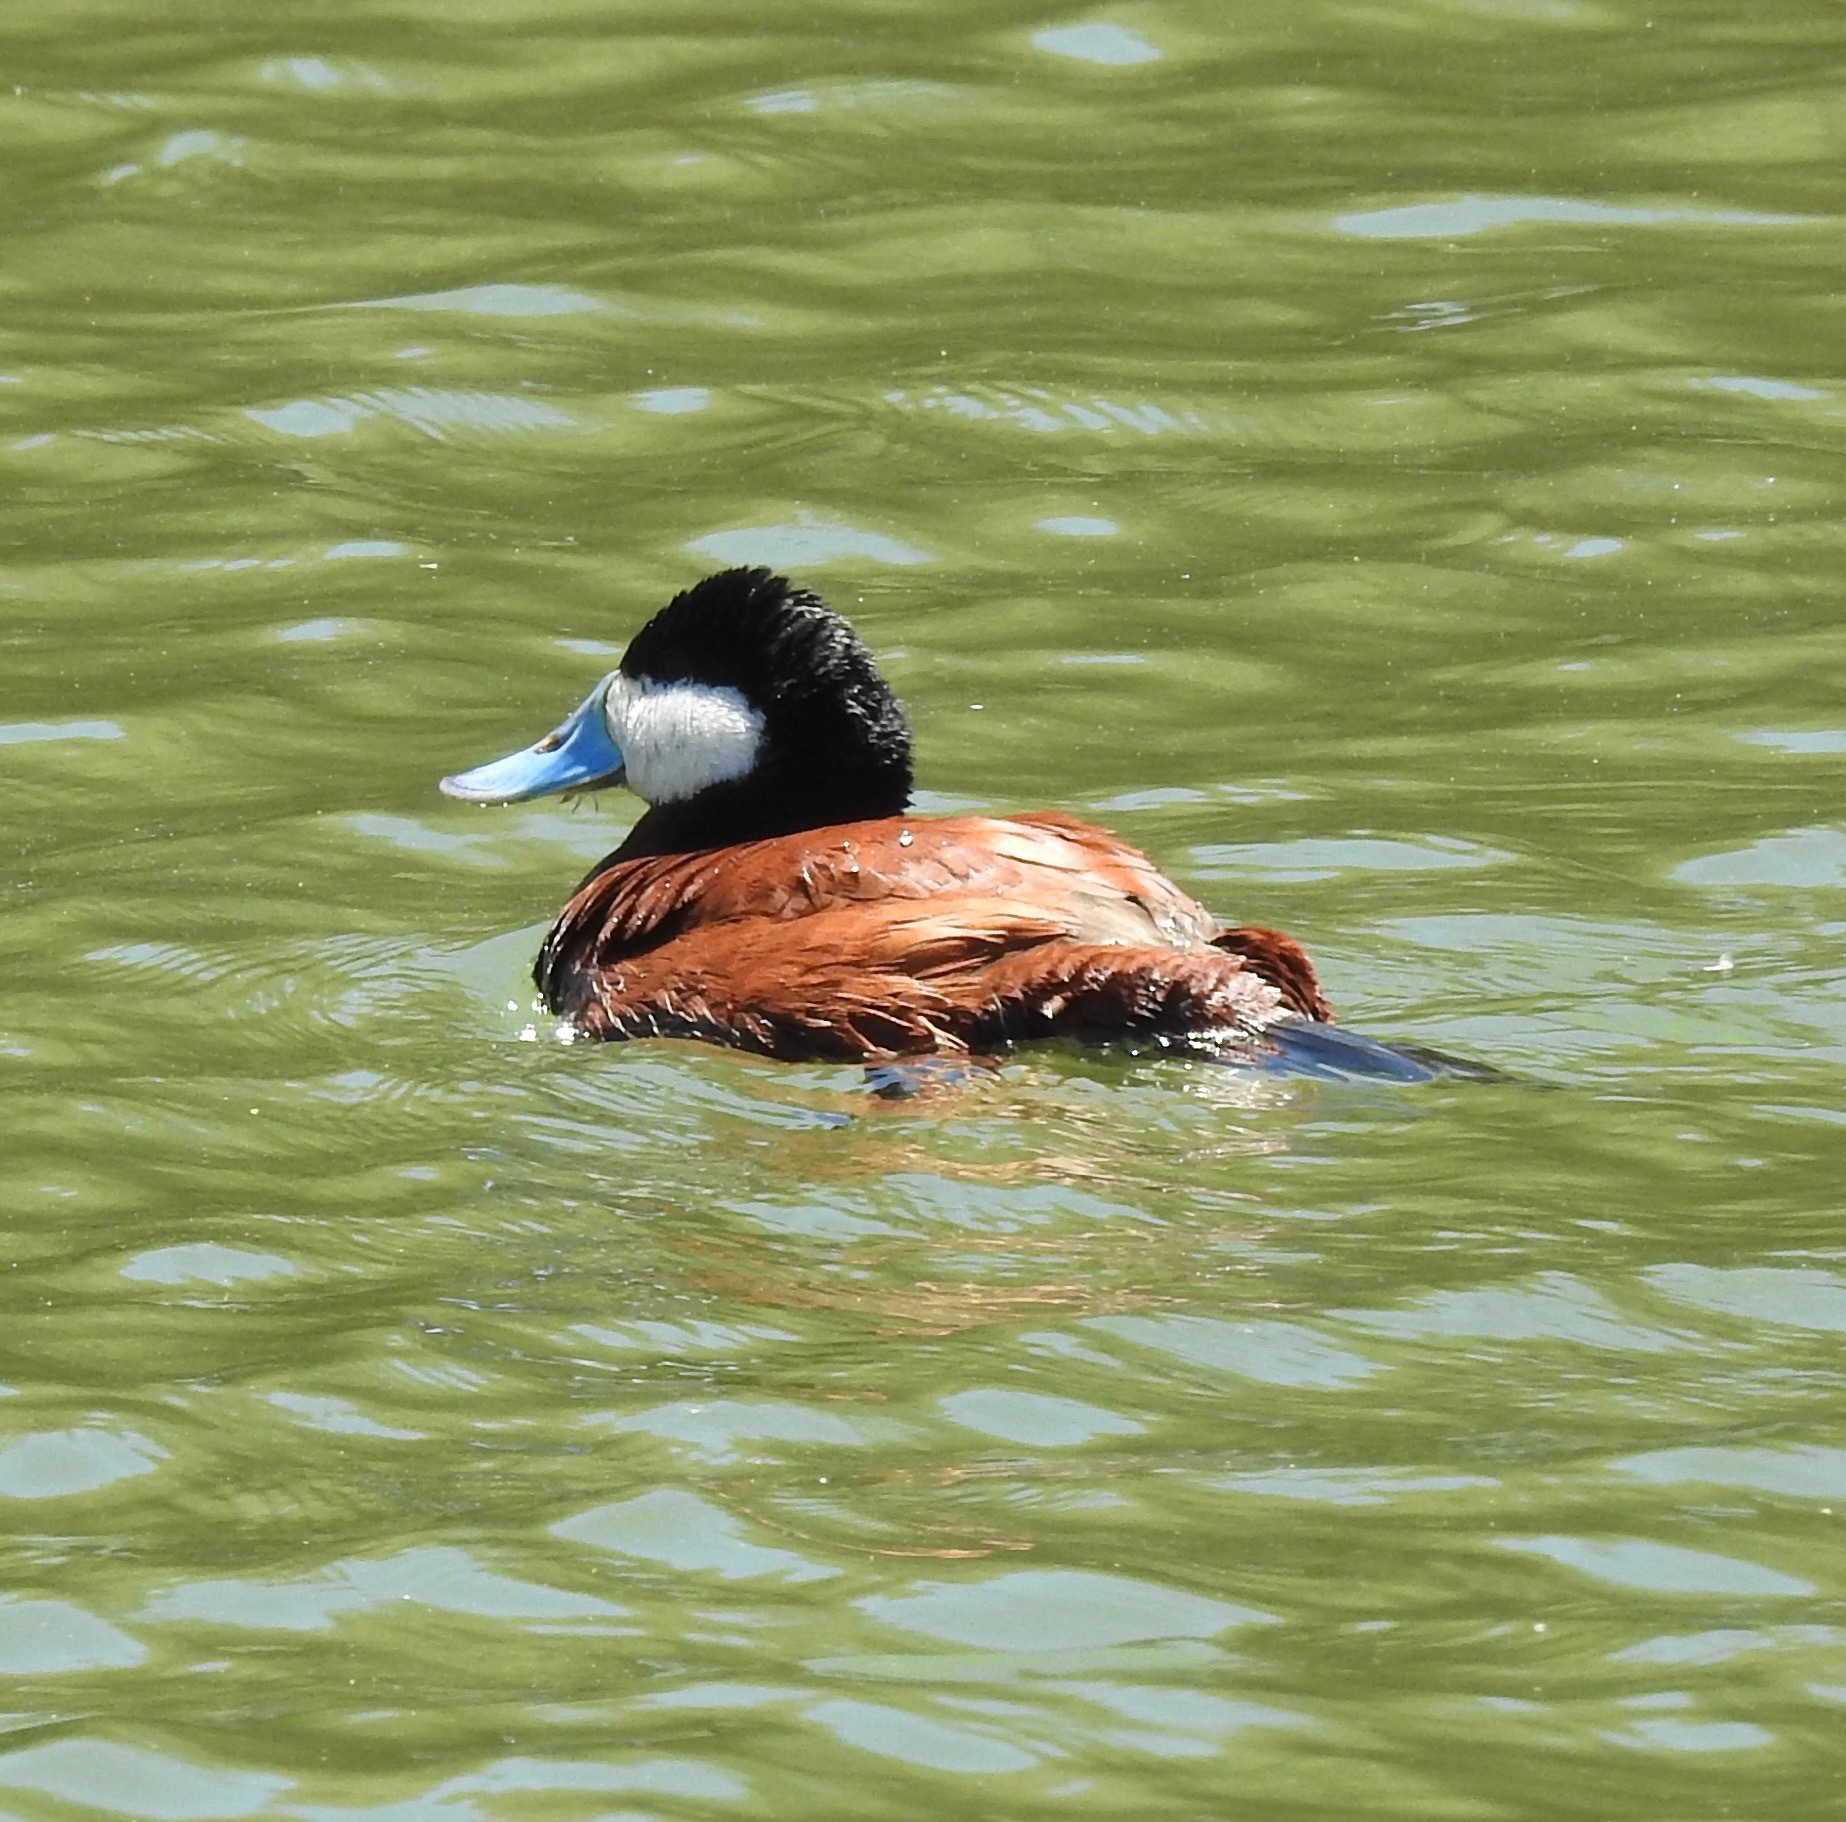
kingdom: Animalia
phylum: Chordata
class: Aves
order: Anseriformes
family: Anatidae
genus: Oxyura
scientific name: Oxyura jamaicensis
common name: Ruddy duck
